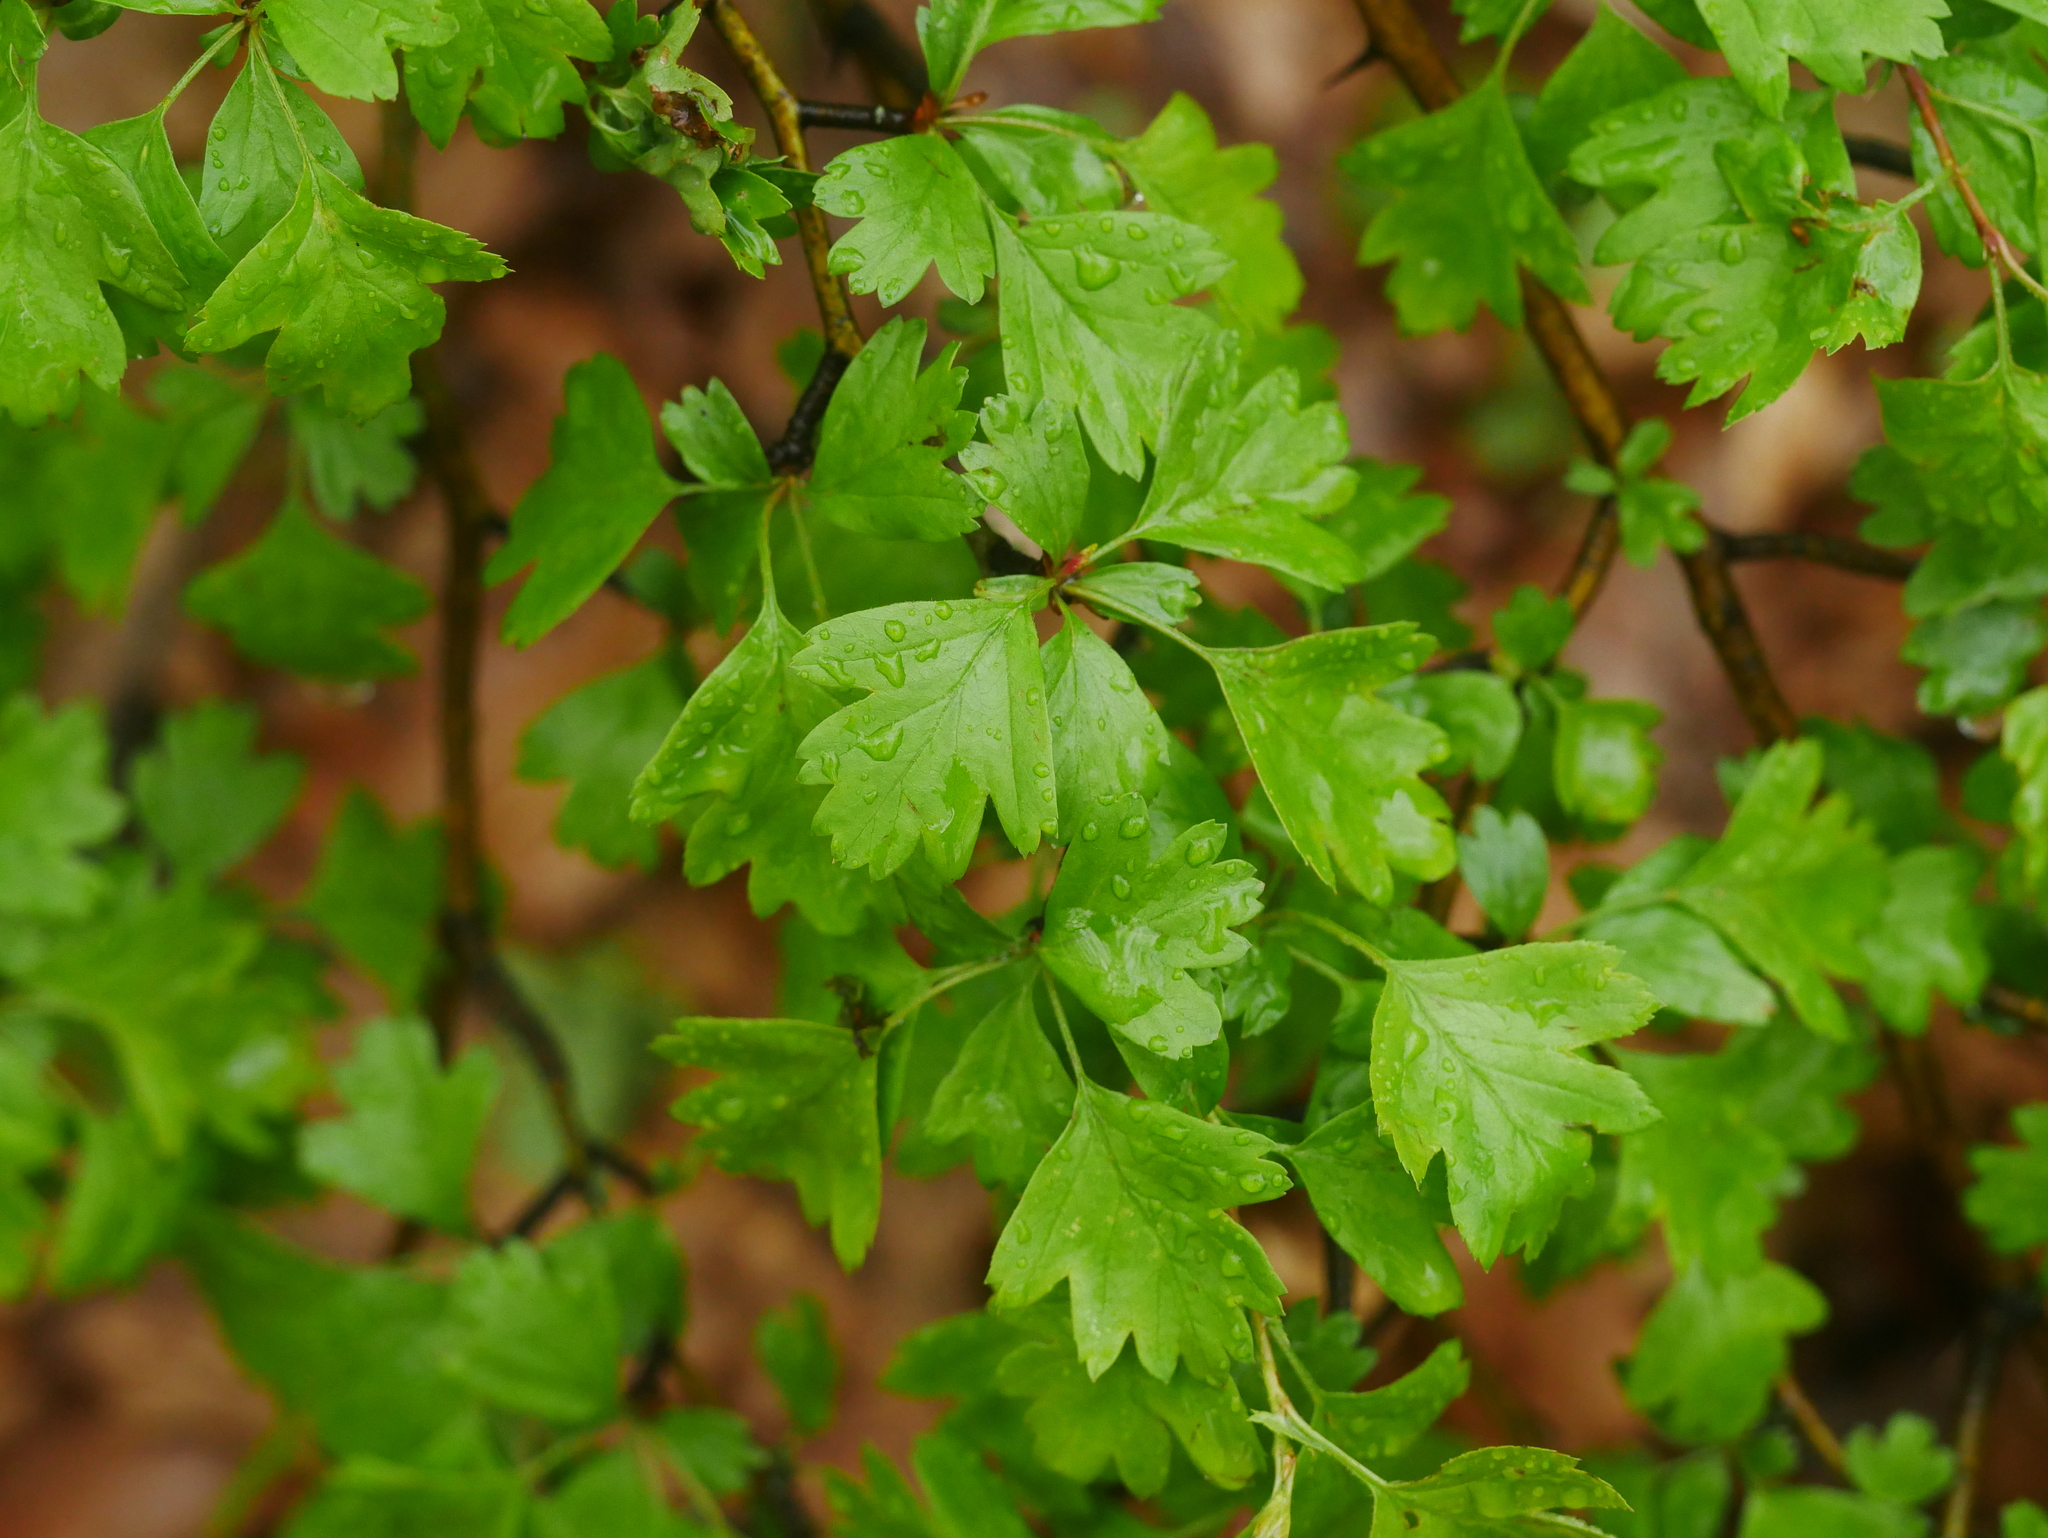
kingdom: Plantae
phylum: Tracheophyta
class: Magnoliopsida
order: Rosales
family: Rosaceae
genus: Crataegus
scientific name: Crataegus monogyna
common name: Hawthorn
